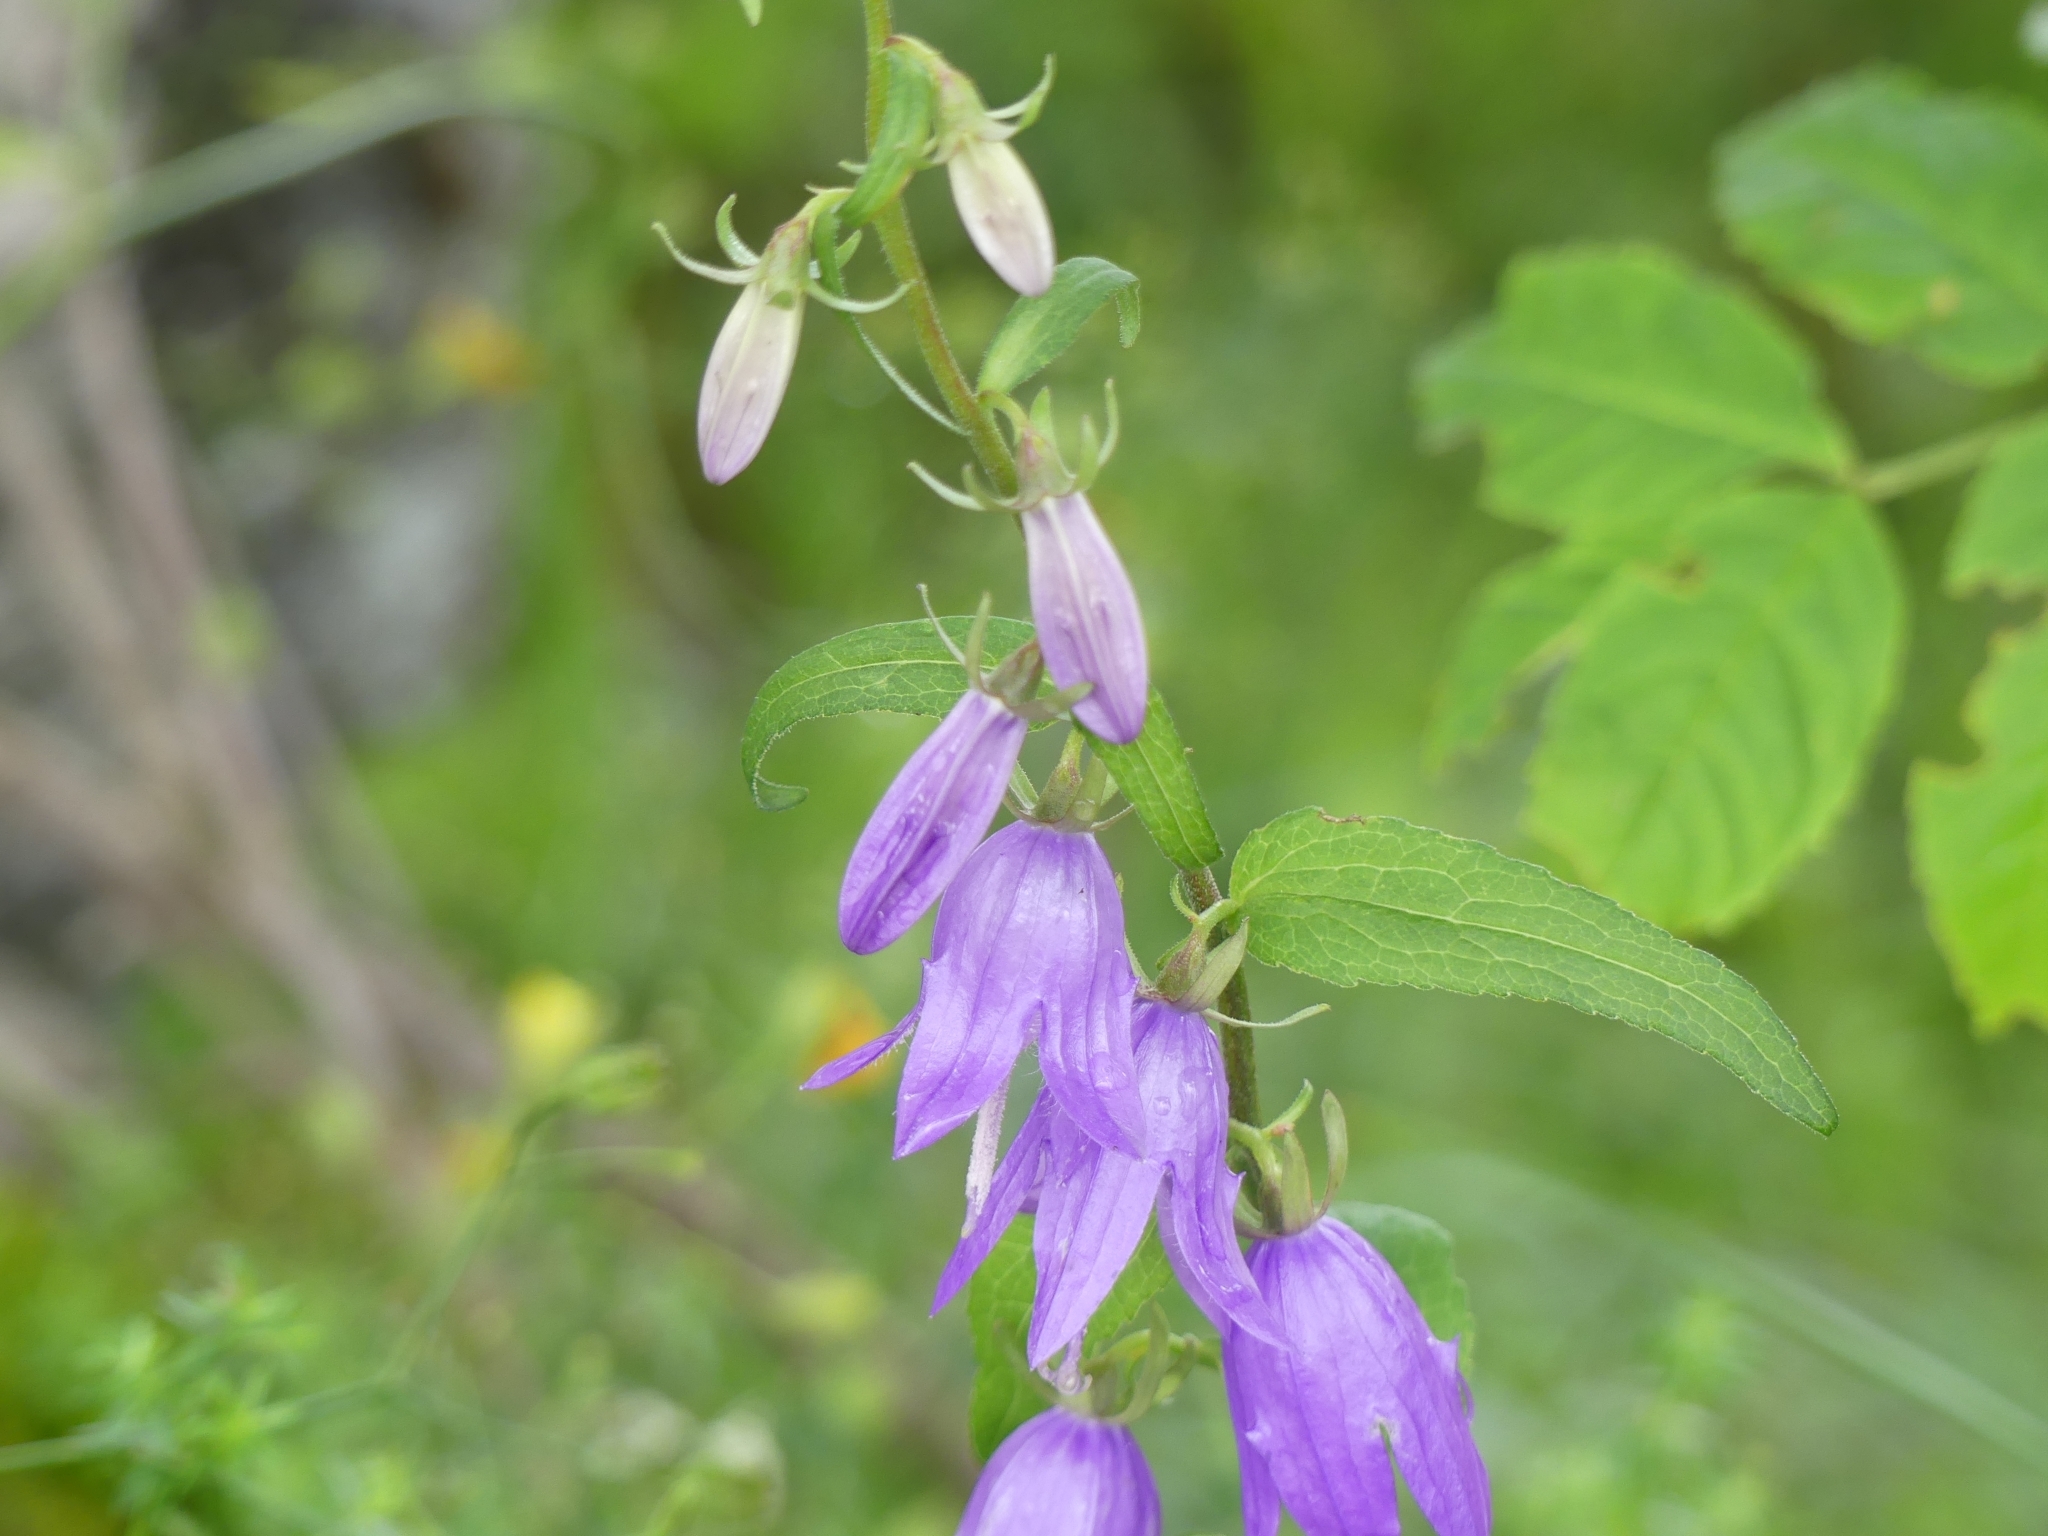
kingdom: Plantae
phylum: Tracheophyta
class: Magnoliopsida
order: Asterales
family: Campanulaceae
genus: Campanula
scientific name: Campanula rapunculoides
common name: Creeping bellflower
